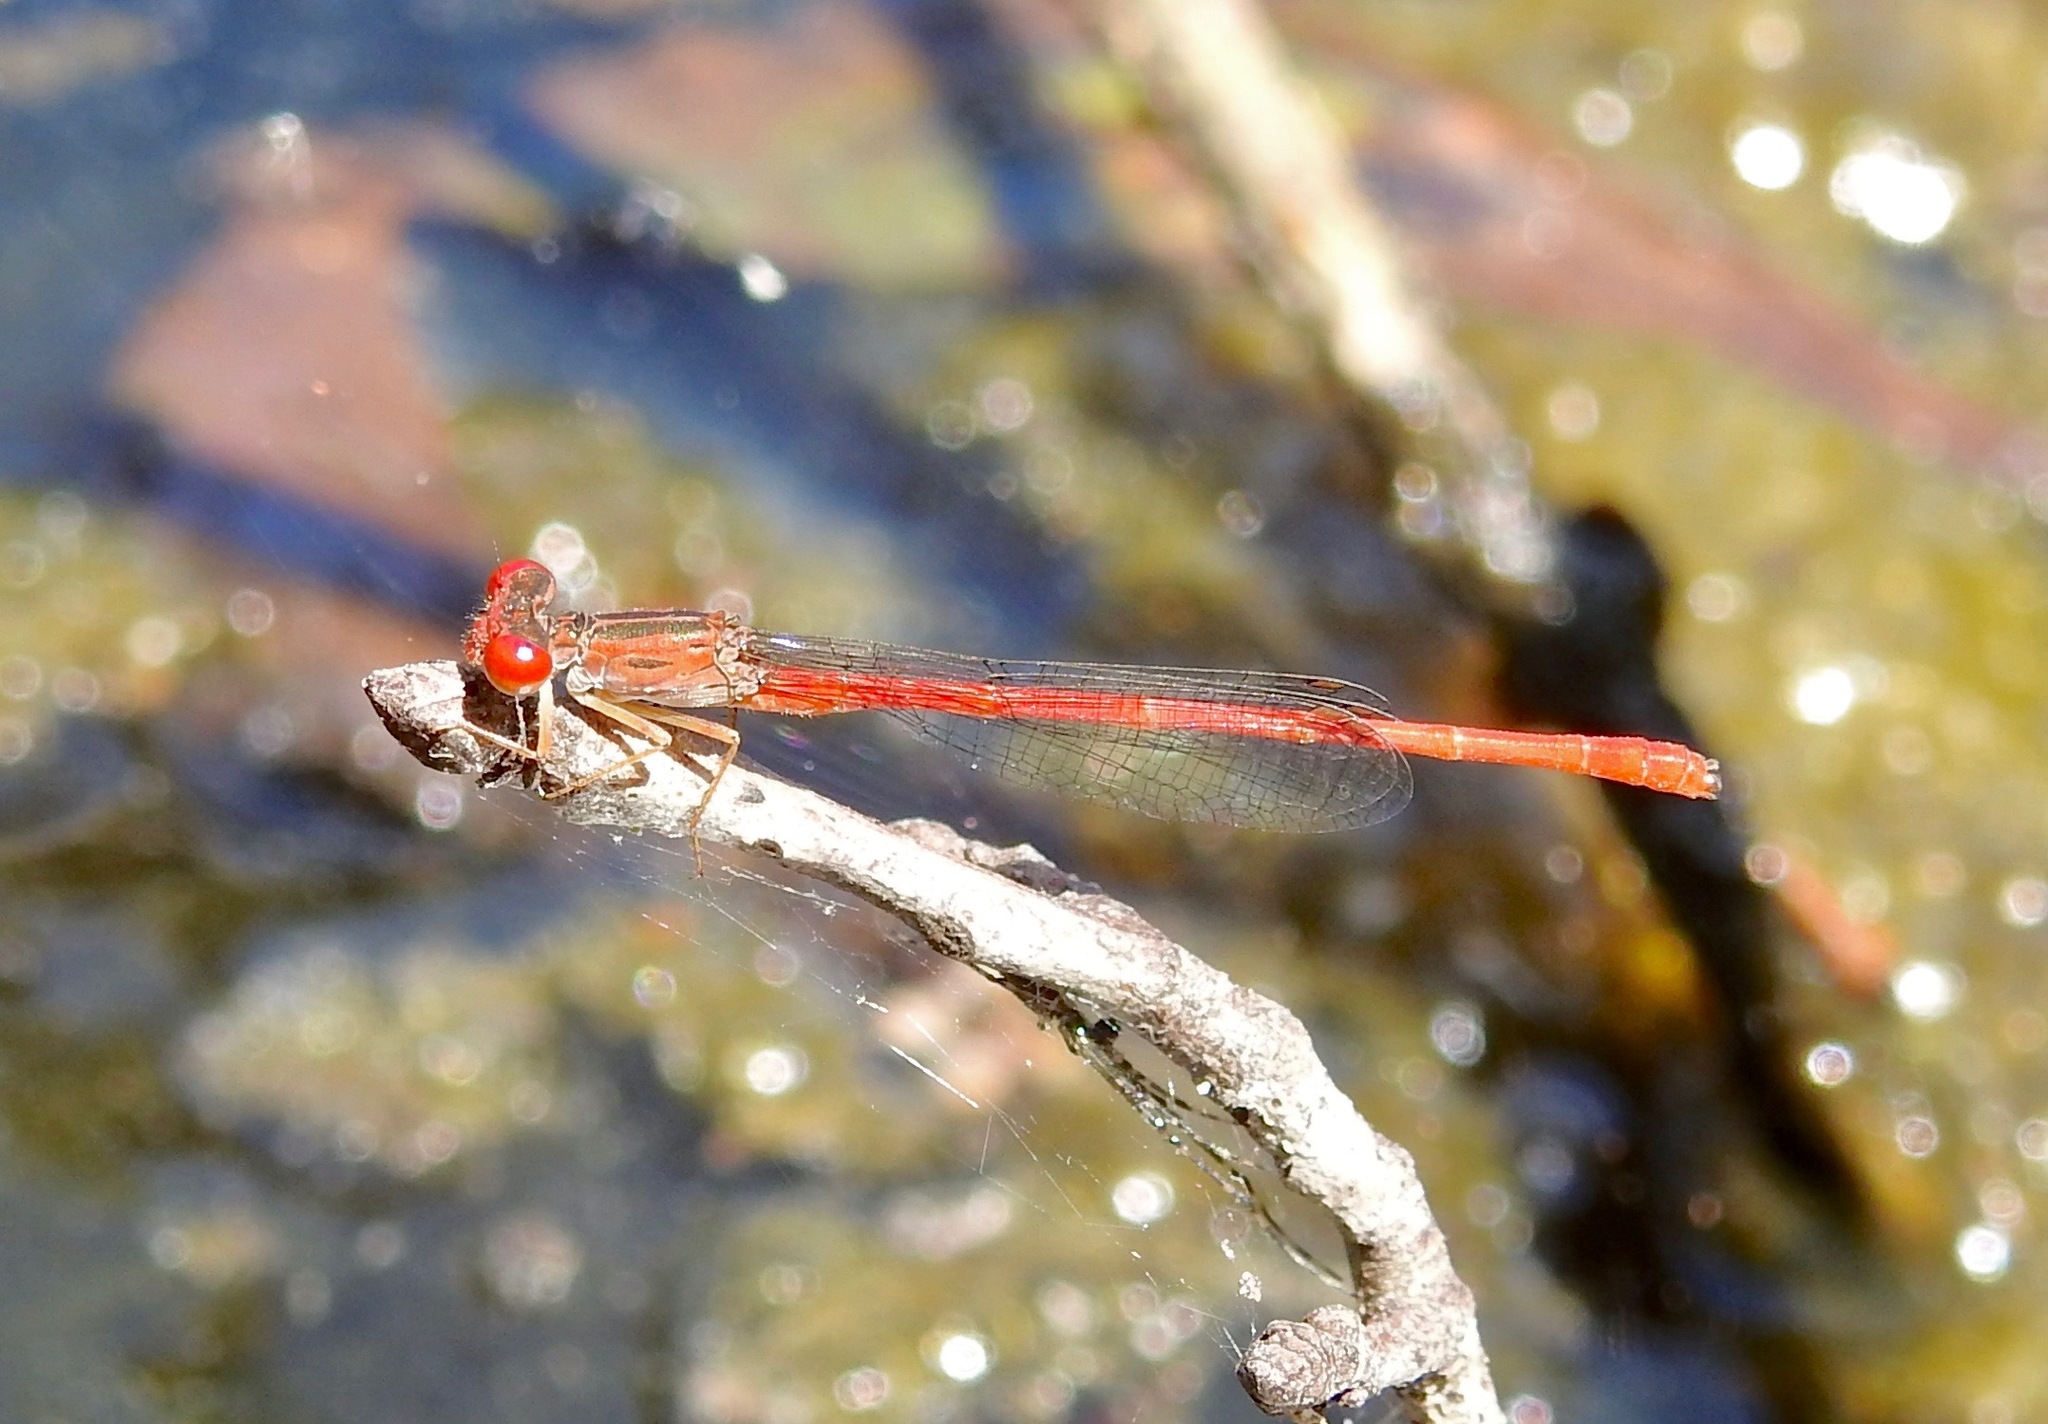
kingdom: Animalia
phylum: Arthropoda
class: Insecta
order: Odonata
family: Coenagrionidae
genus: Telebasis
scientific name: Telebasis byersi
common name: Duckweed firetail
